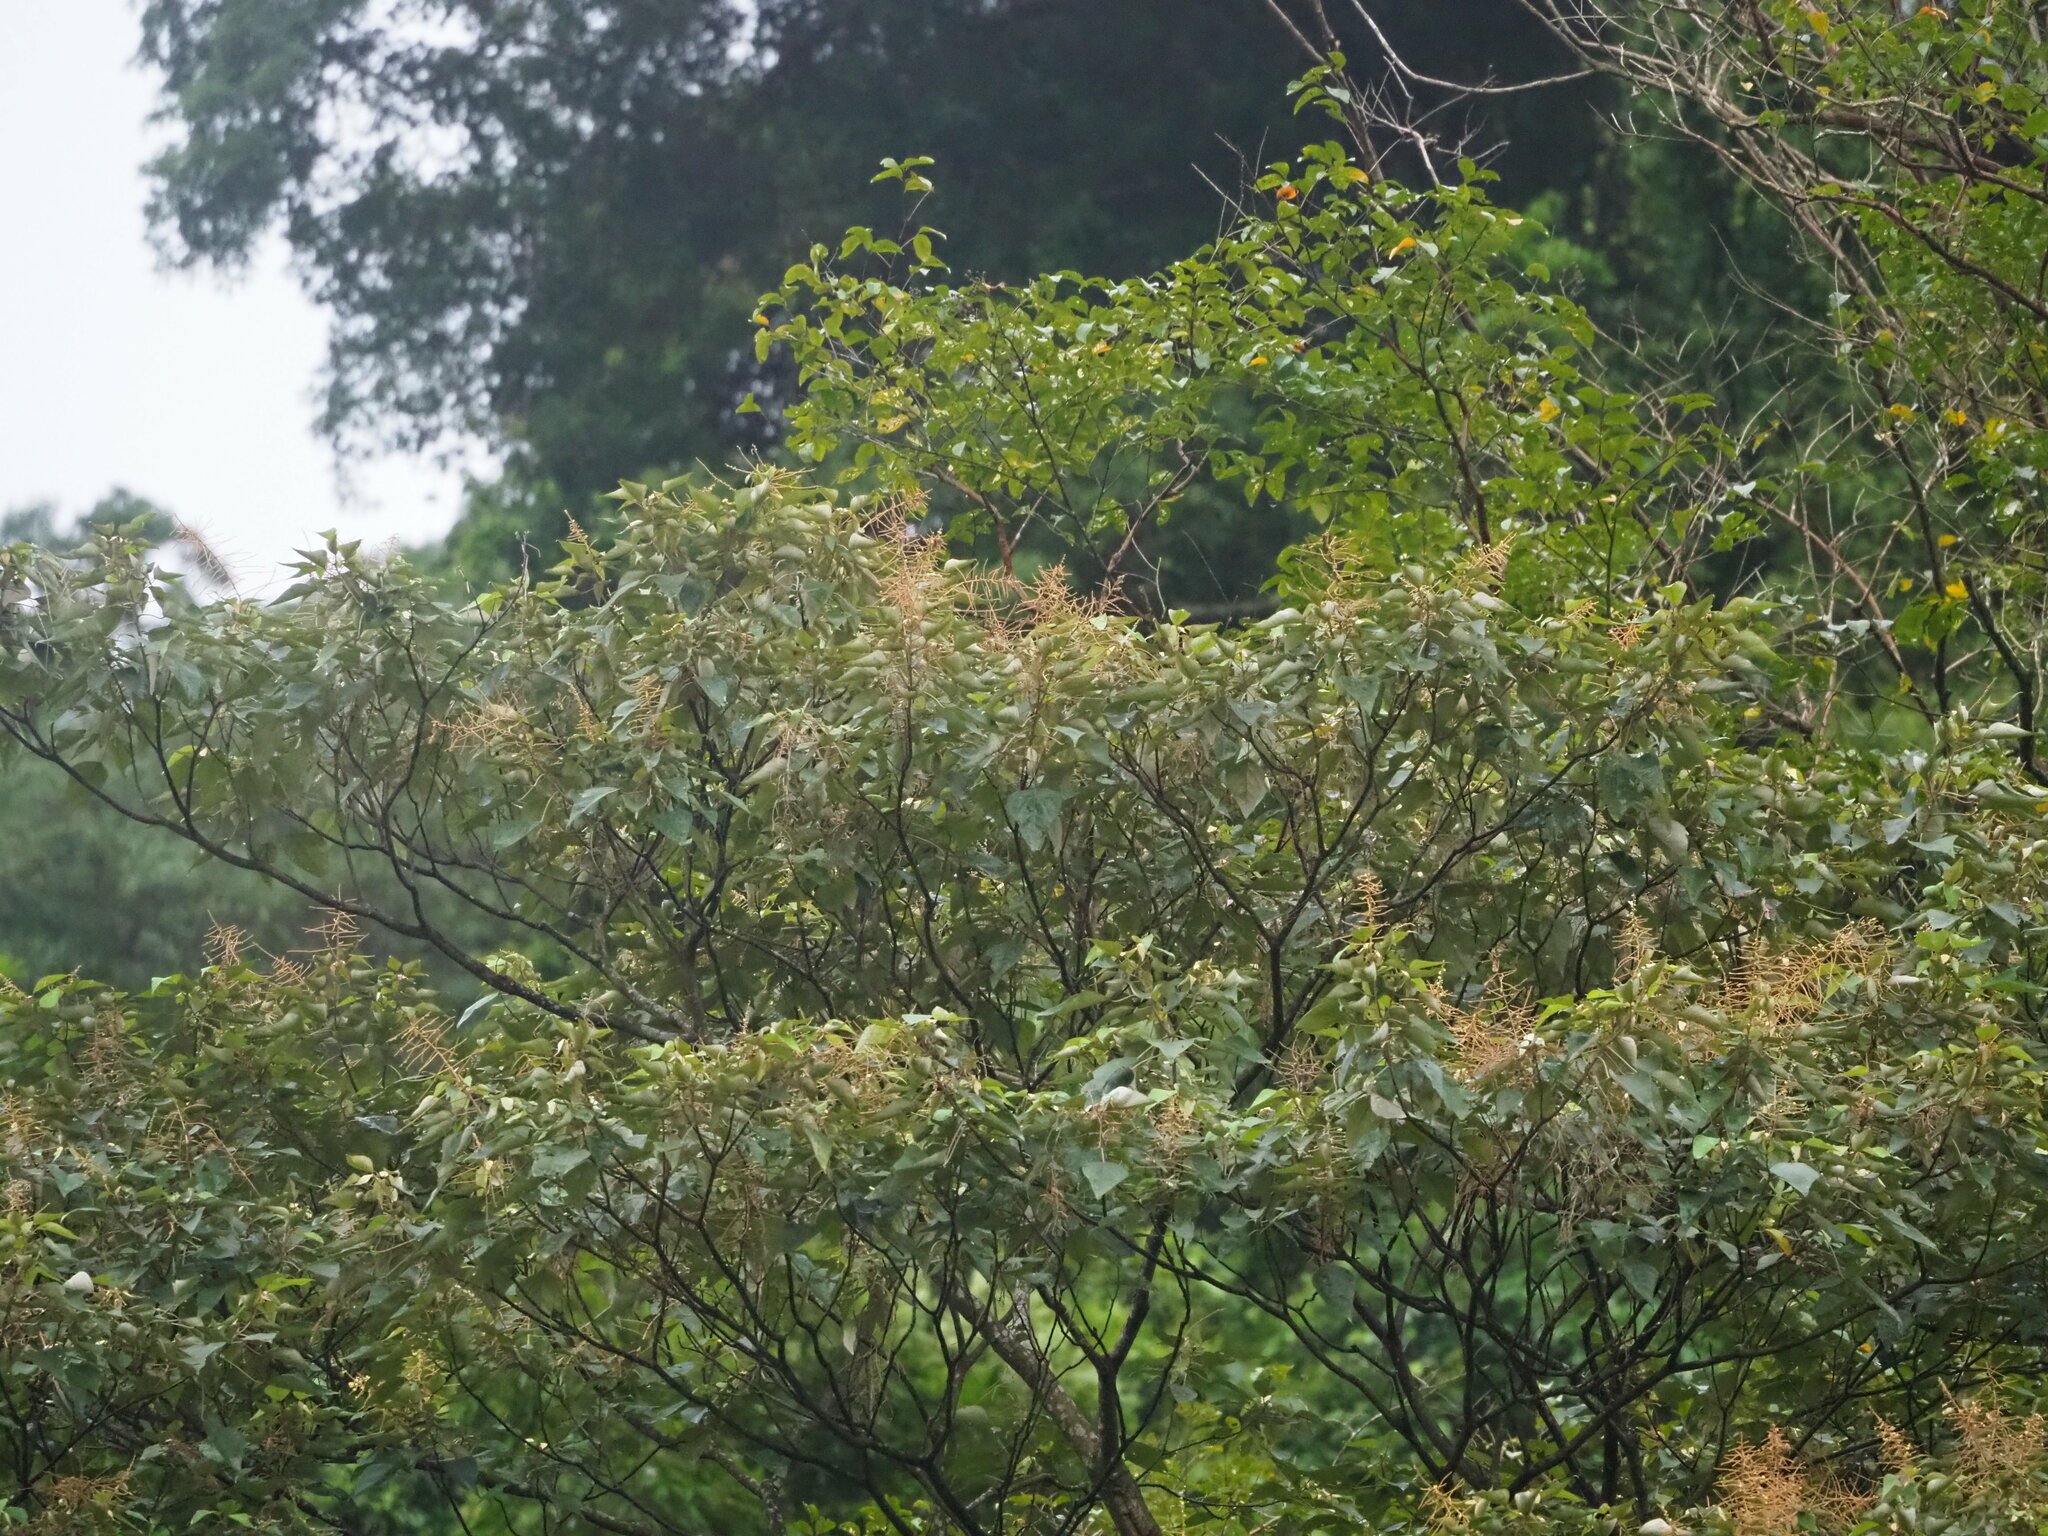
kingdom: Plantae
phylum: Tracheophyta
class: Magnoliopsida
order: Malpighiales
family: Euphorbiaceae
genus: Mallotus
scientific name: Mallotus paniculatus
